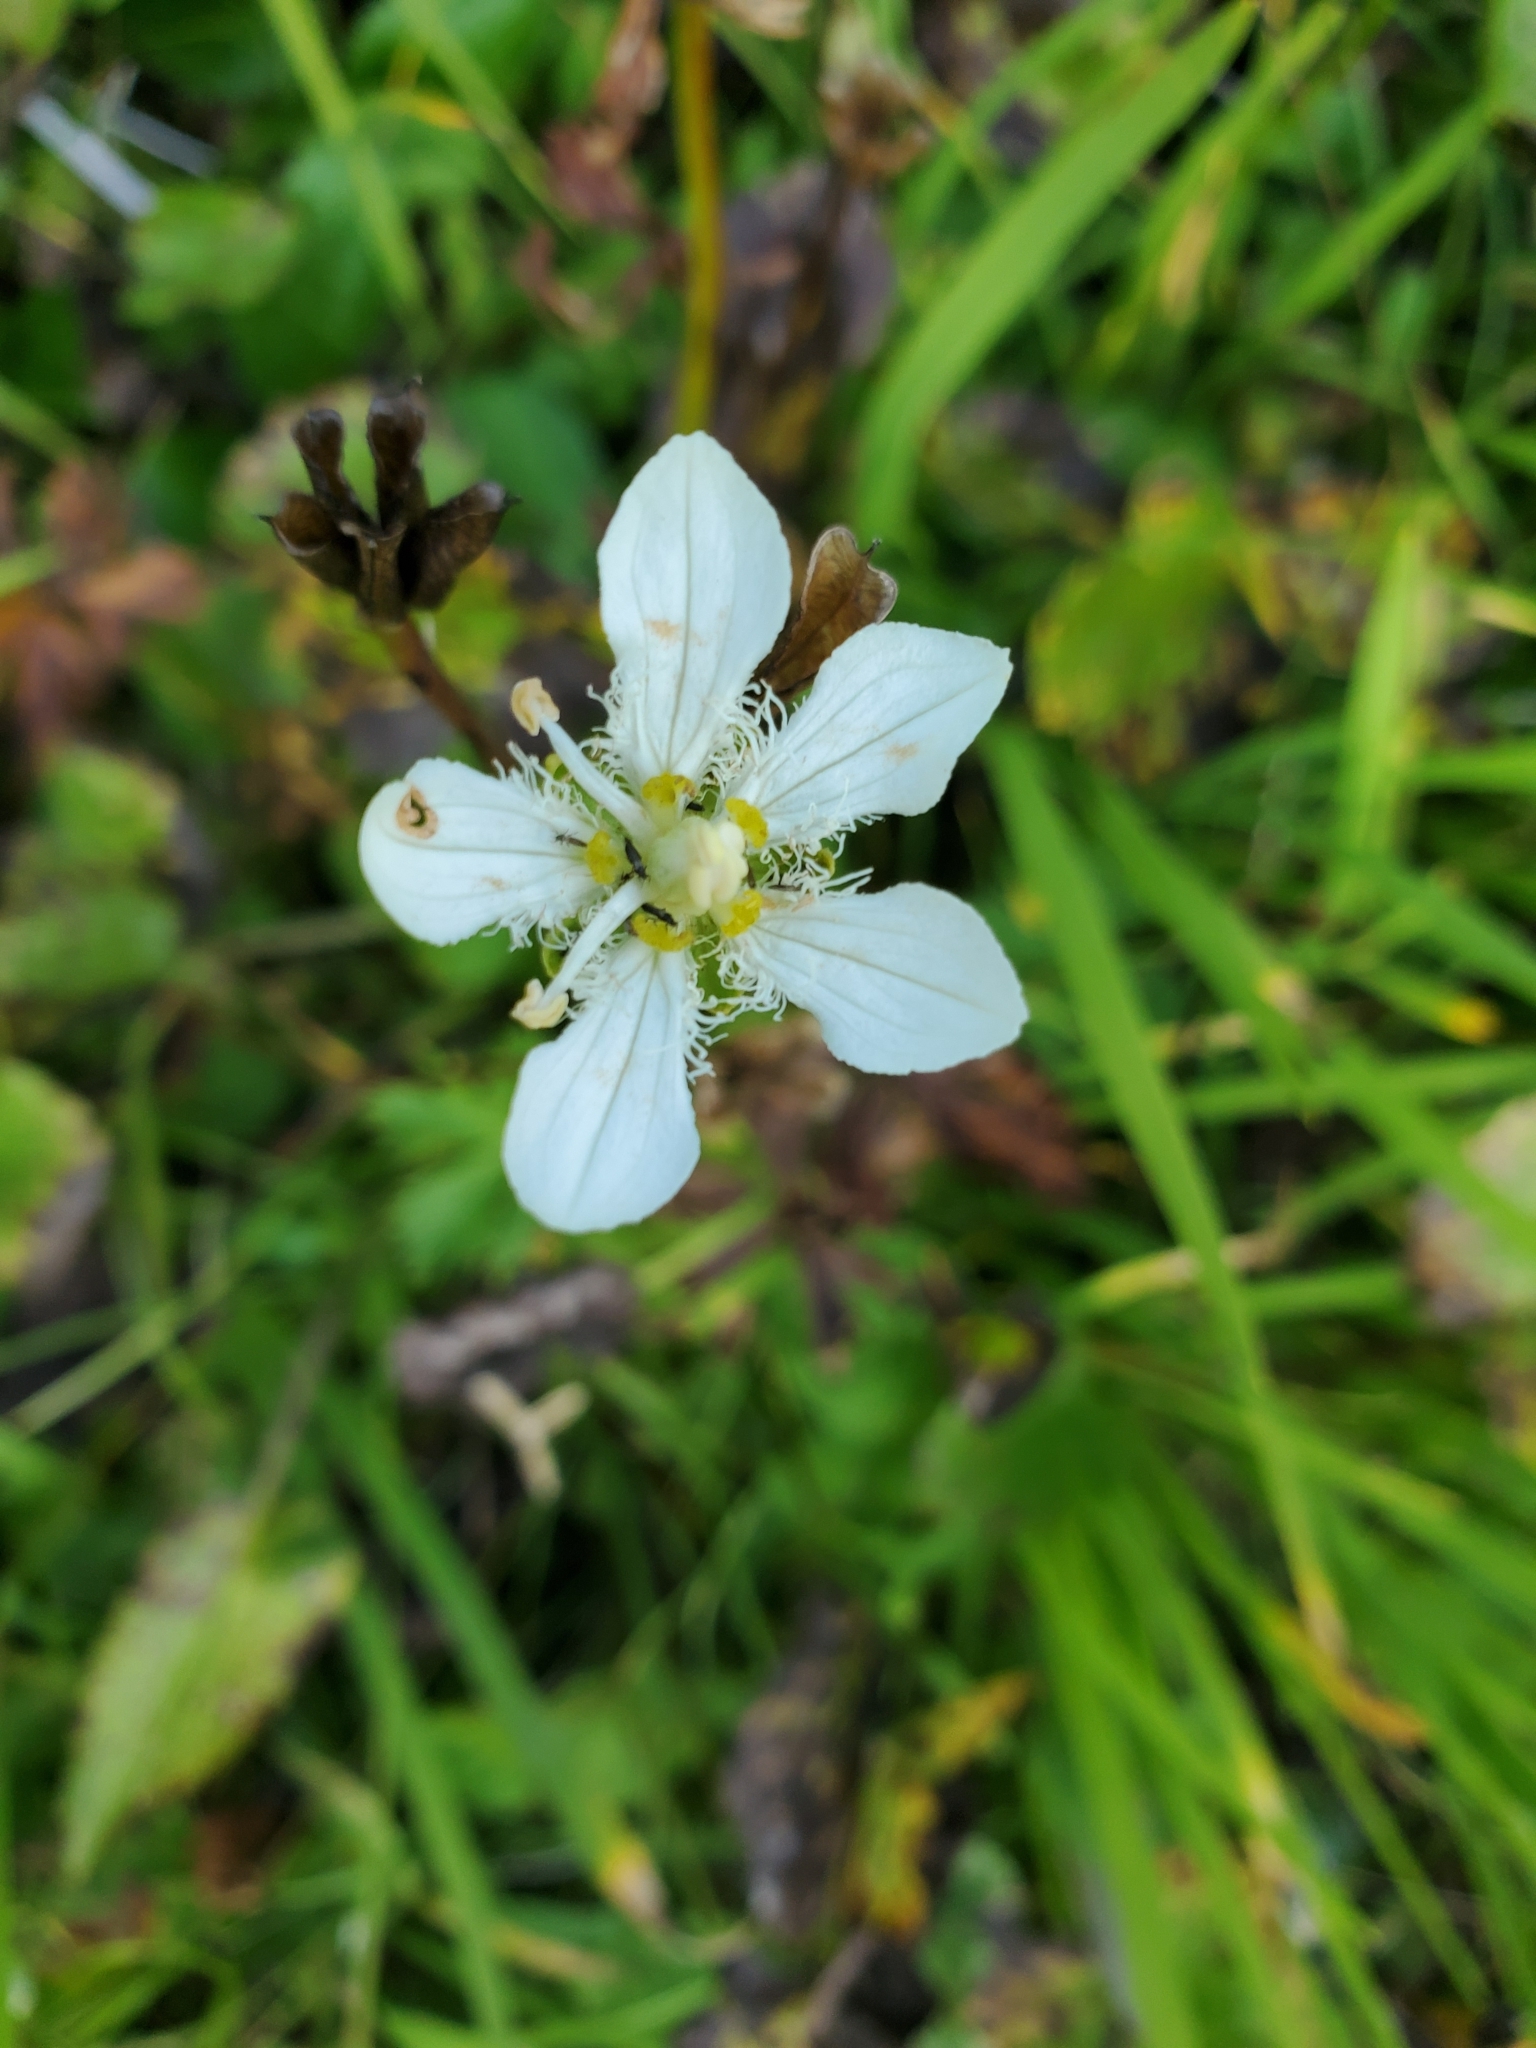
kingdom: Plantae
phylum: Tracheophyta
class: Magnoliopsida
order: Celastrales
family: Parnassiaceae
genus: Parnassia
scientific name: Parnassia fimbriata
